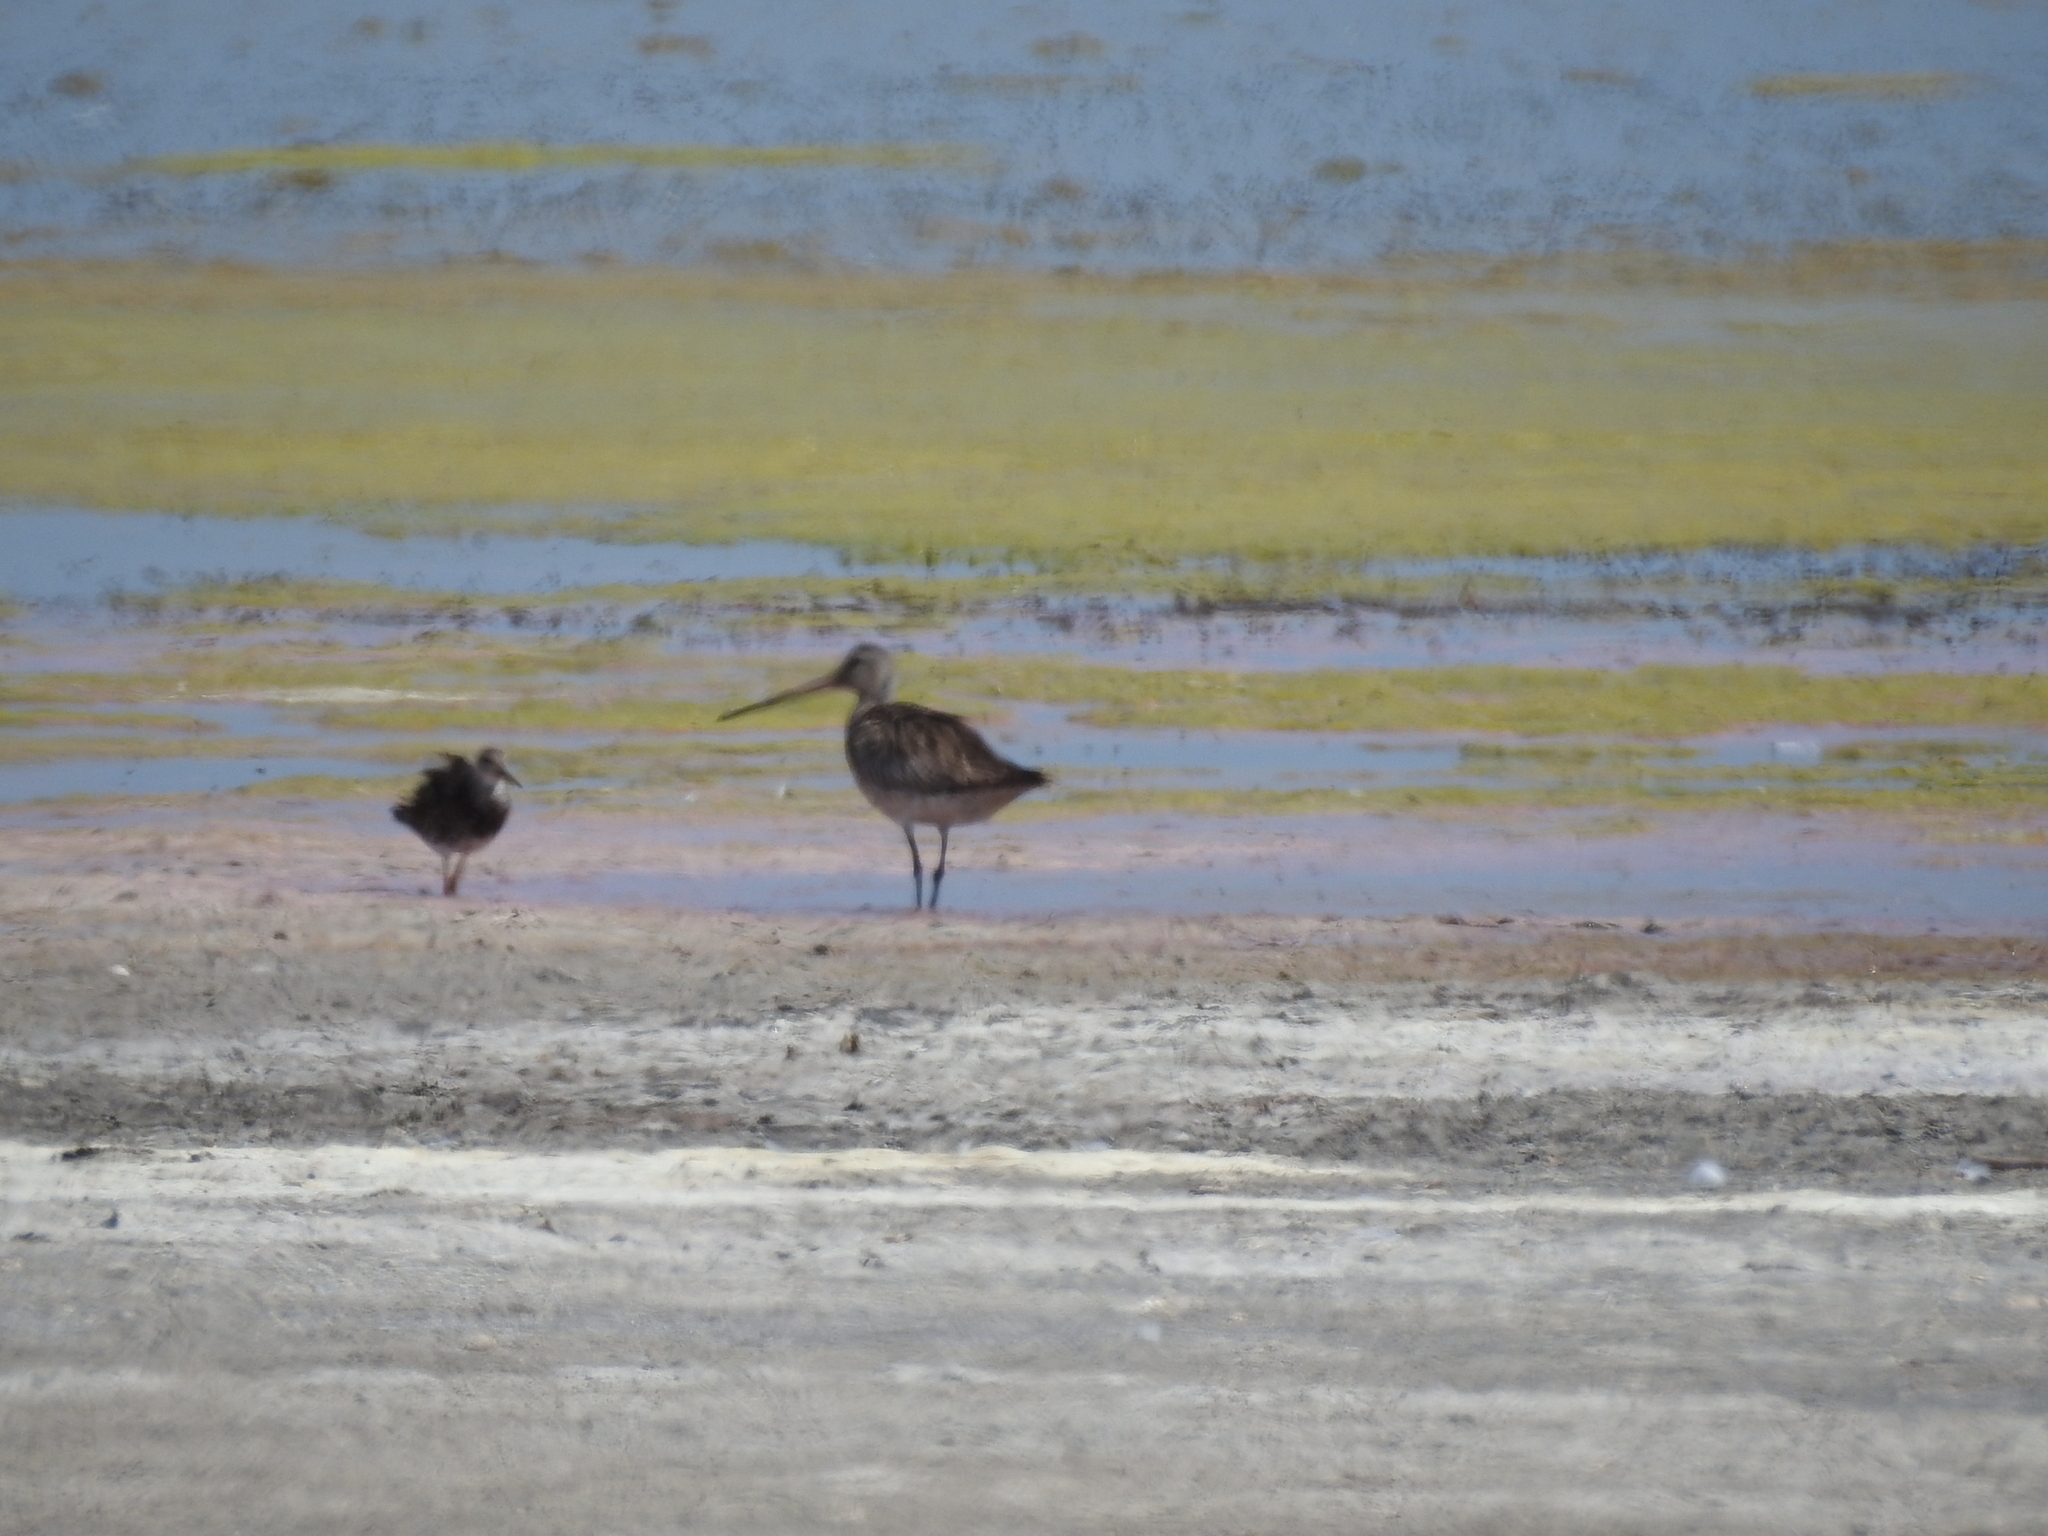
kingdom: Animalia
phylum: Chordata
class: Aves
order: Charadriiformes
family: Scolopacidae
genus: Limosa
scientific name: Limosa limosa
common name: Black-tailed godwit
